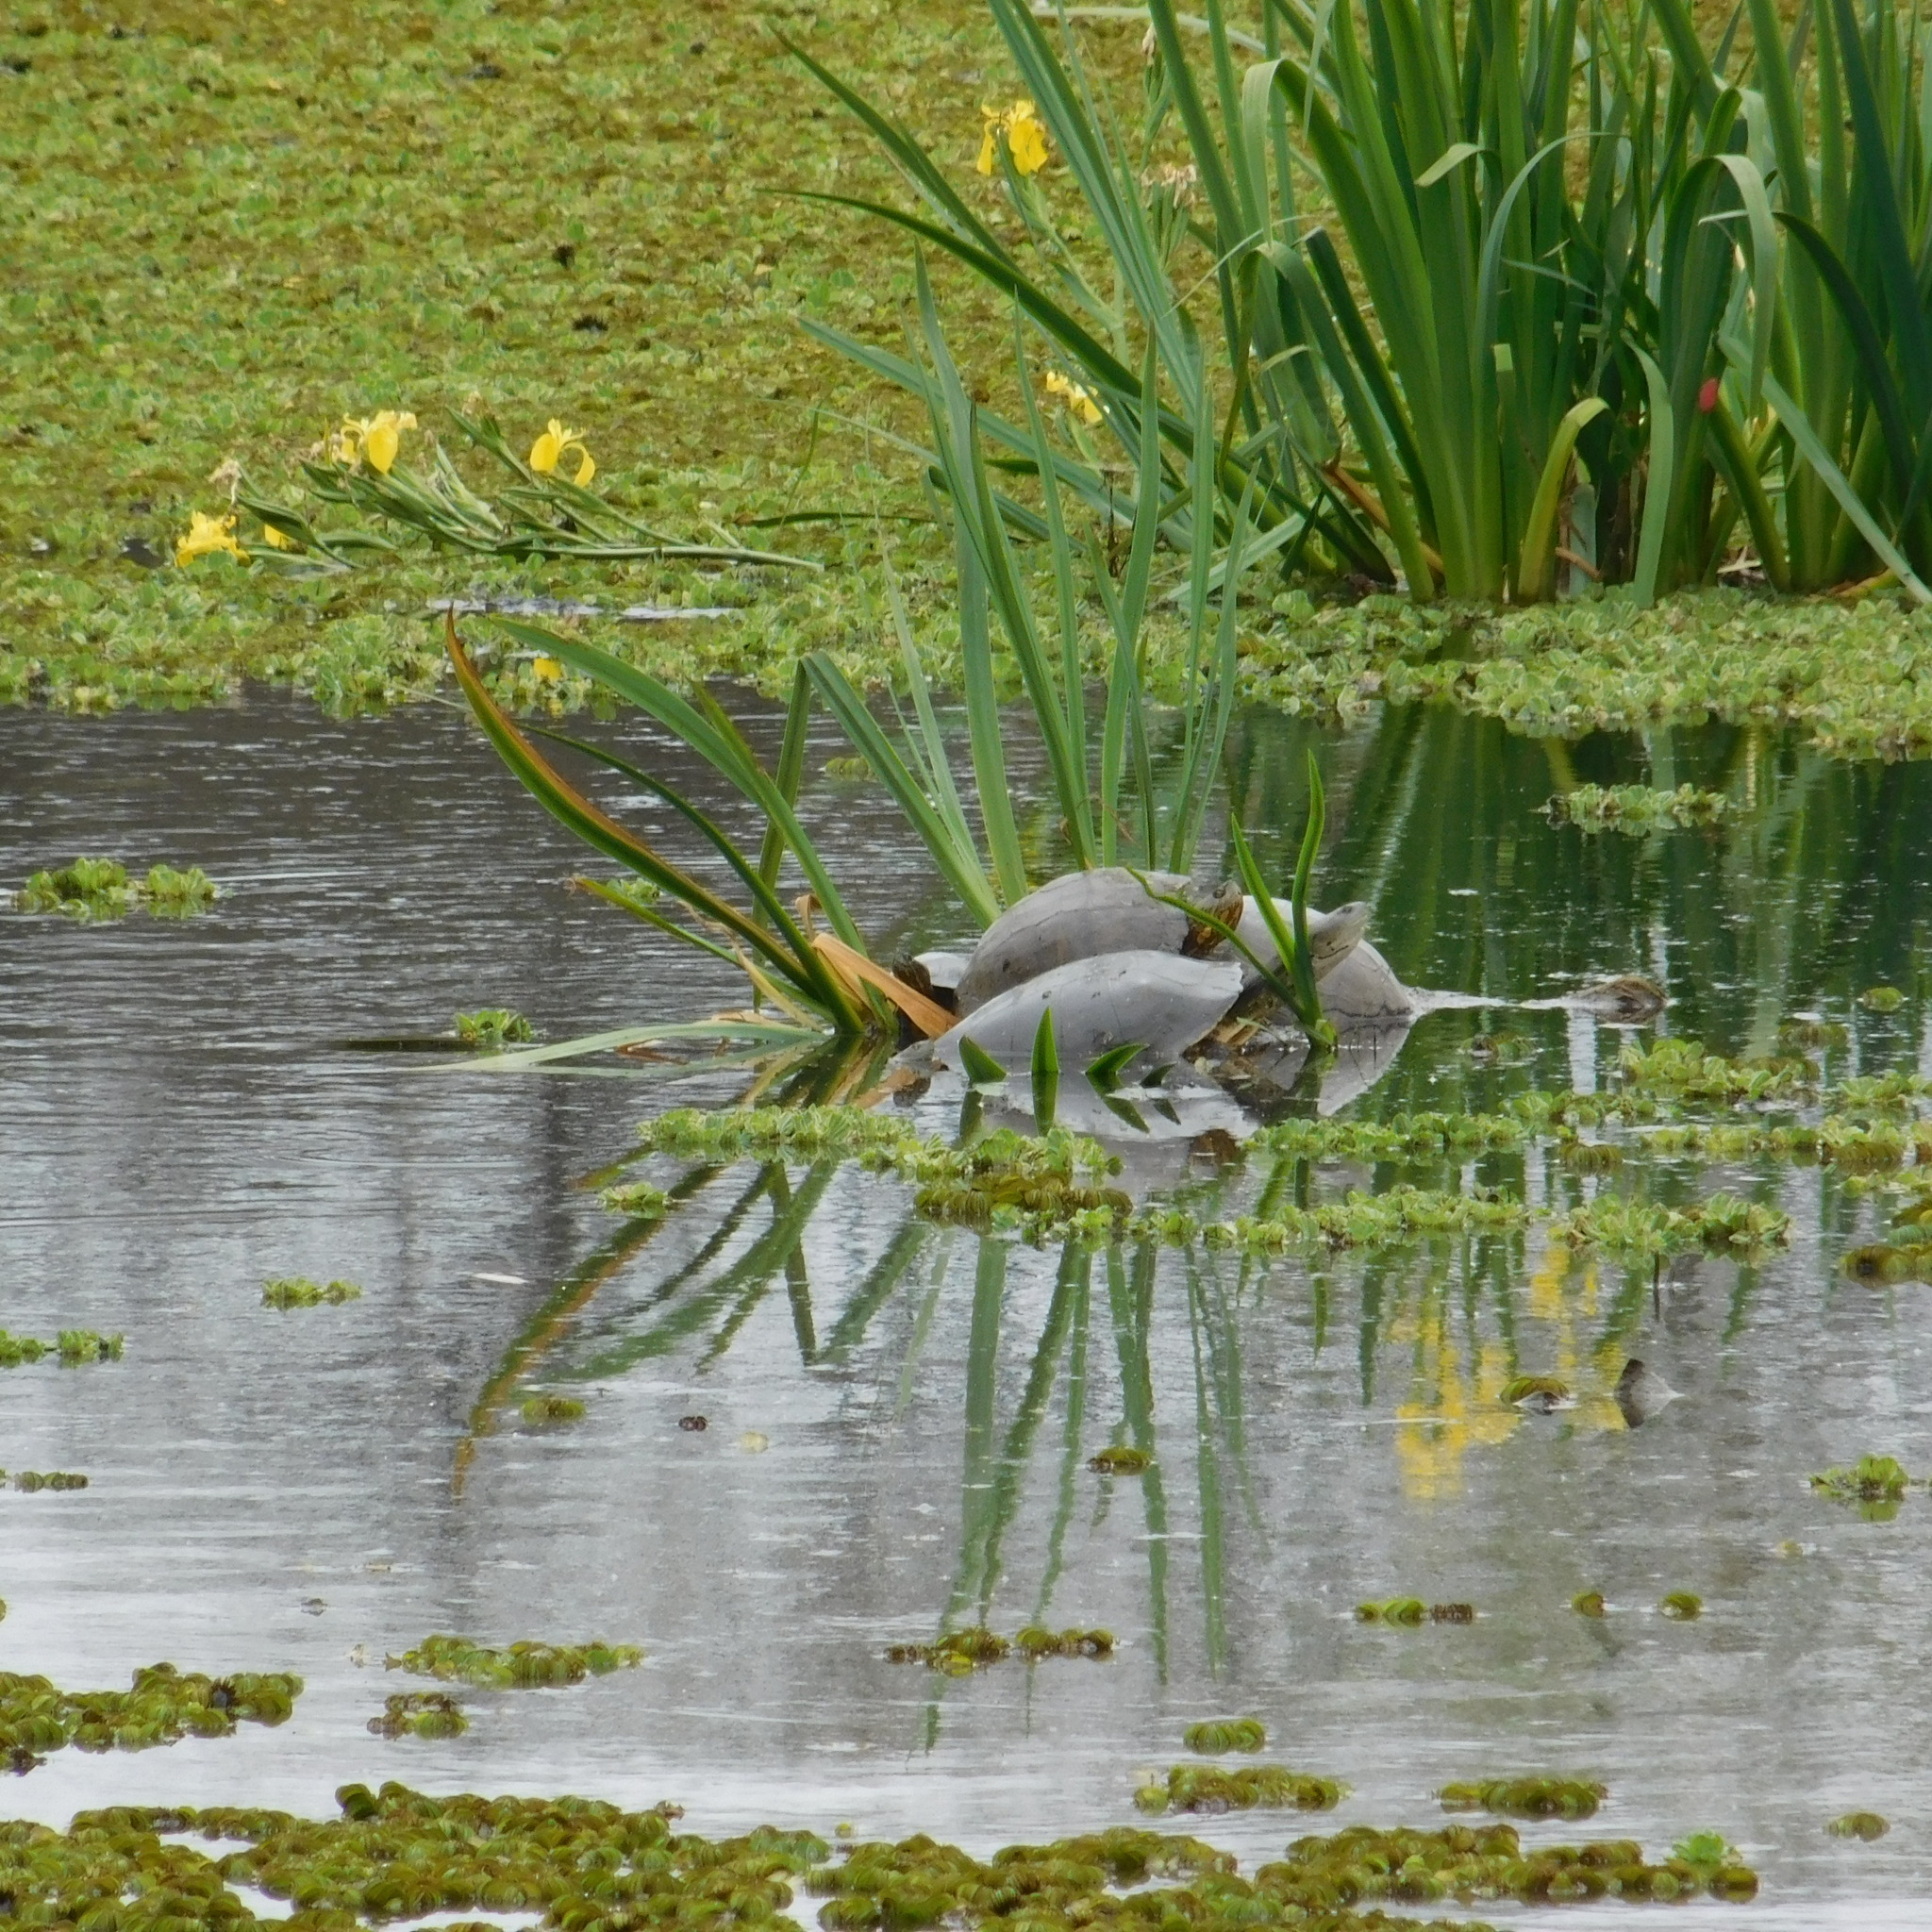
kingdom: Animalia
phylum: Chordata
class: Testudines
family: Chelidae
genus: Phrynops
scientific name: Phrynops hilarii
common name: Side-necked turtle of saint hillaire
